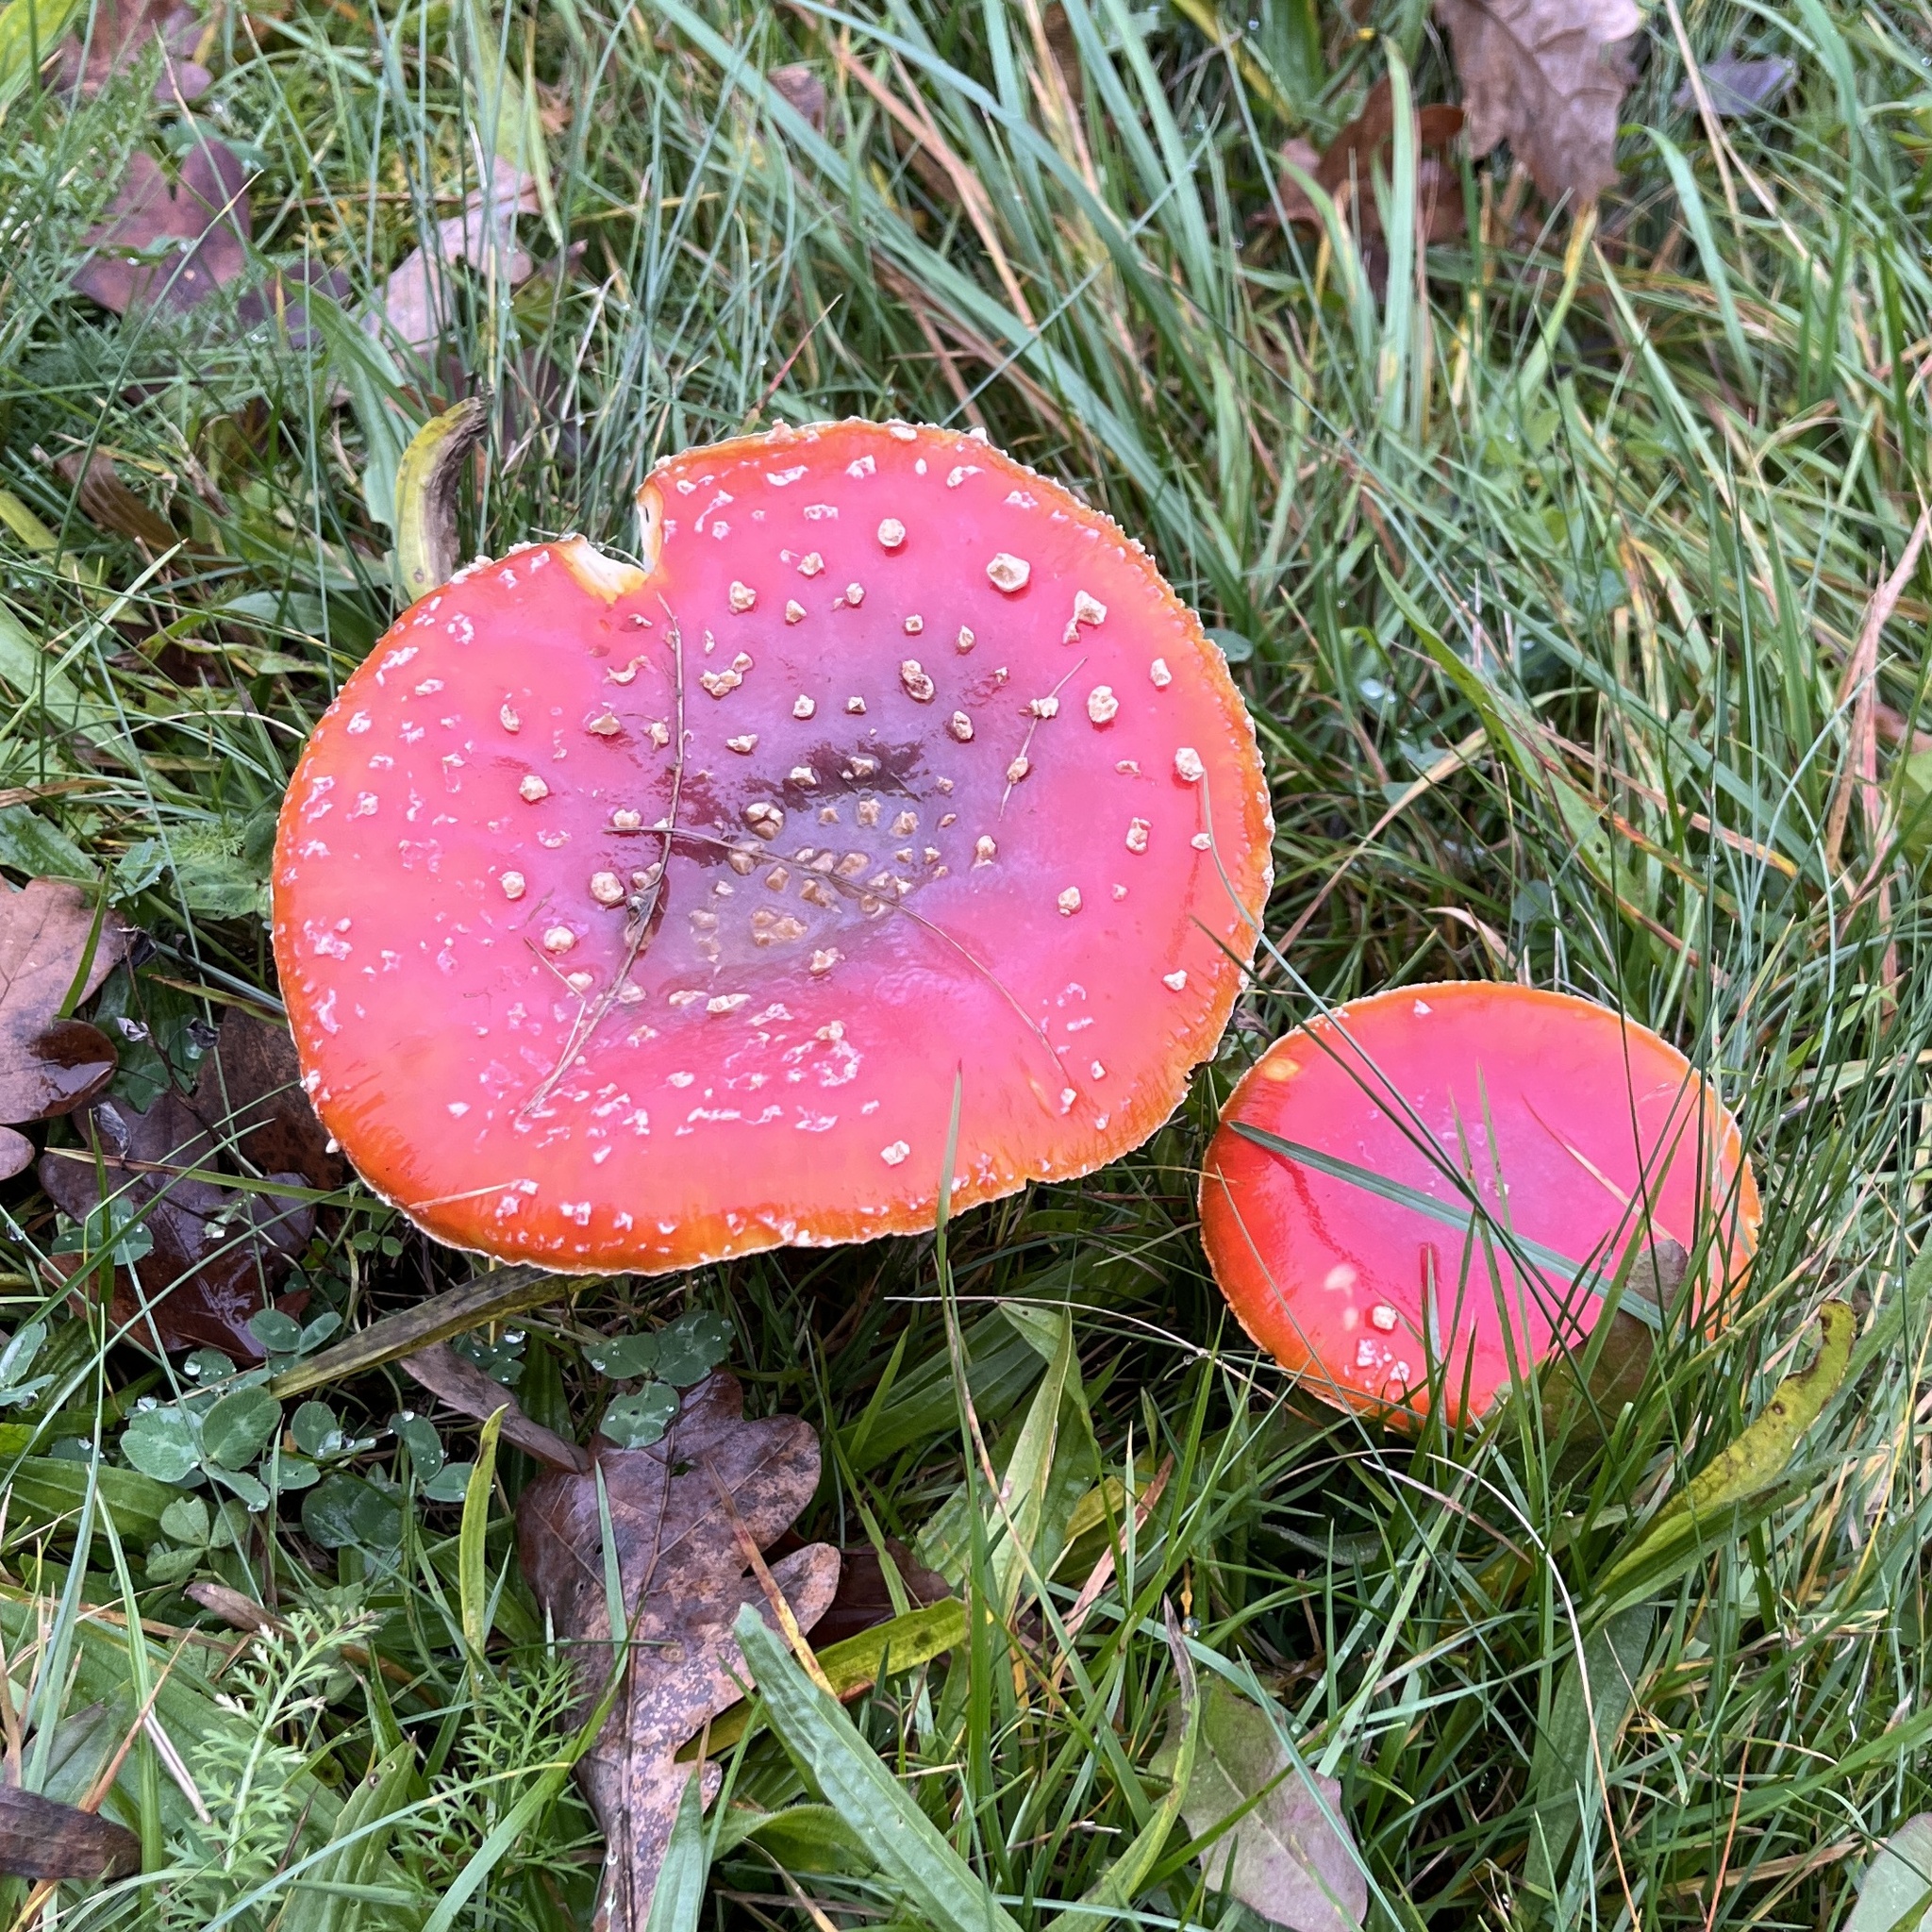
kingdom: Fungi
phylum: Basidiomycota
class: Agaricomycetes
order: Agaricales
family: Amanitaceae
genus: Amanita
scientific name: Amanita muscaria
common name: Fly agaric
